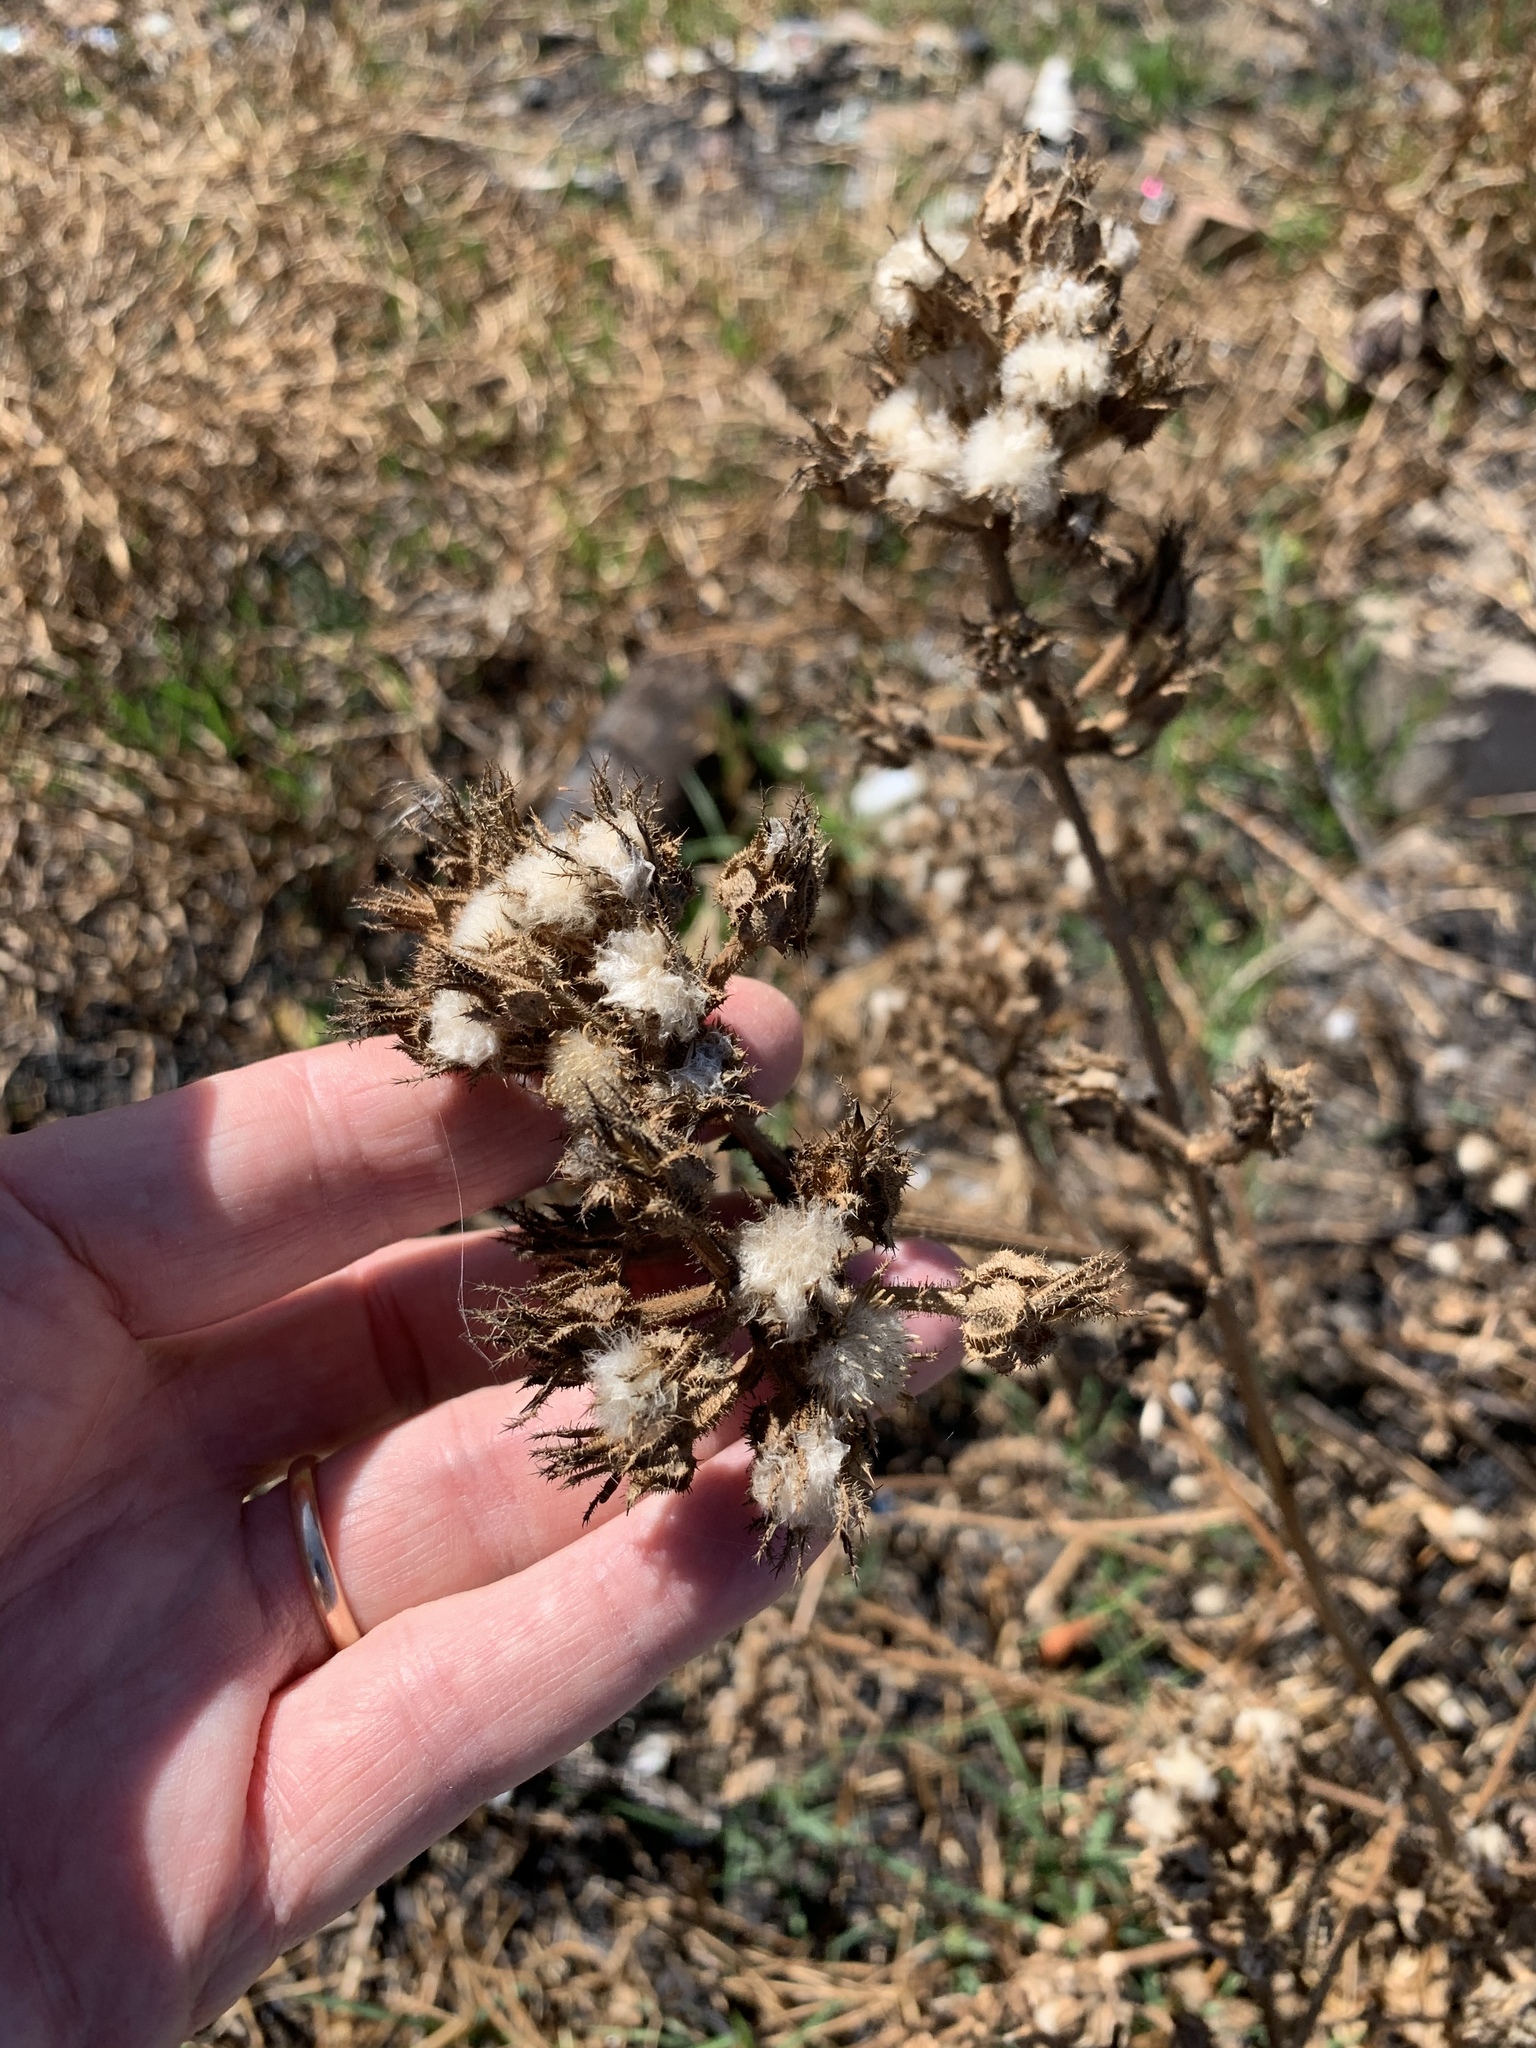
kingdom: Plantae
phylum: Tracheophyta
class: Magnoliopsida
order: Asterales
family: Asteraceae
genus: Helminthotheca
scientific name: Helminthotheca echioides
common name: Ox-tongue
